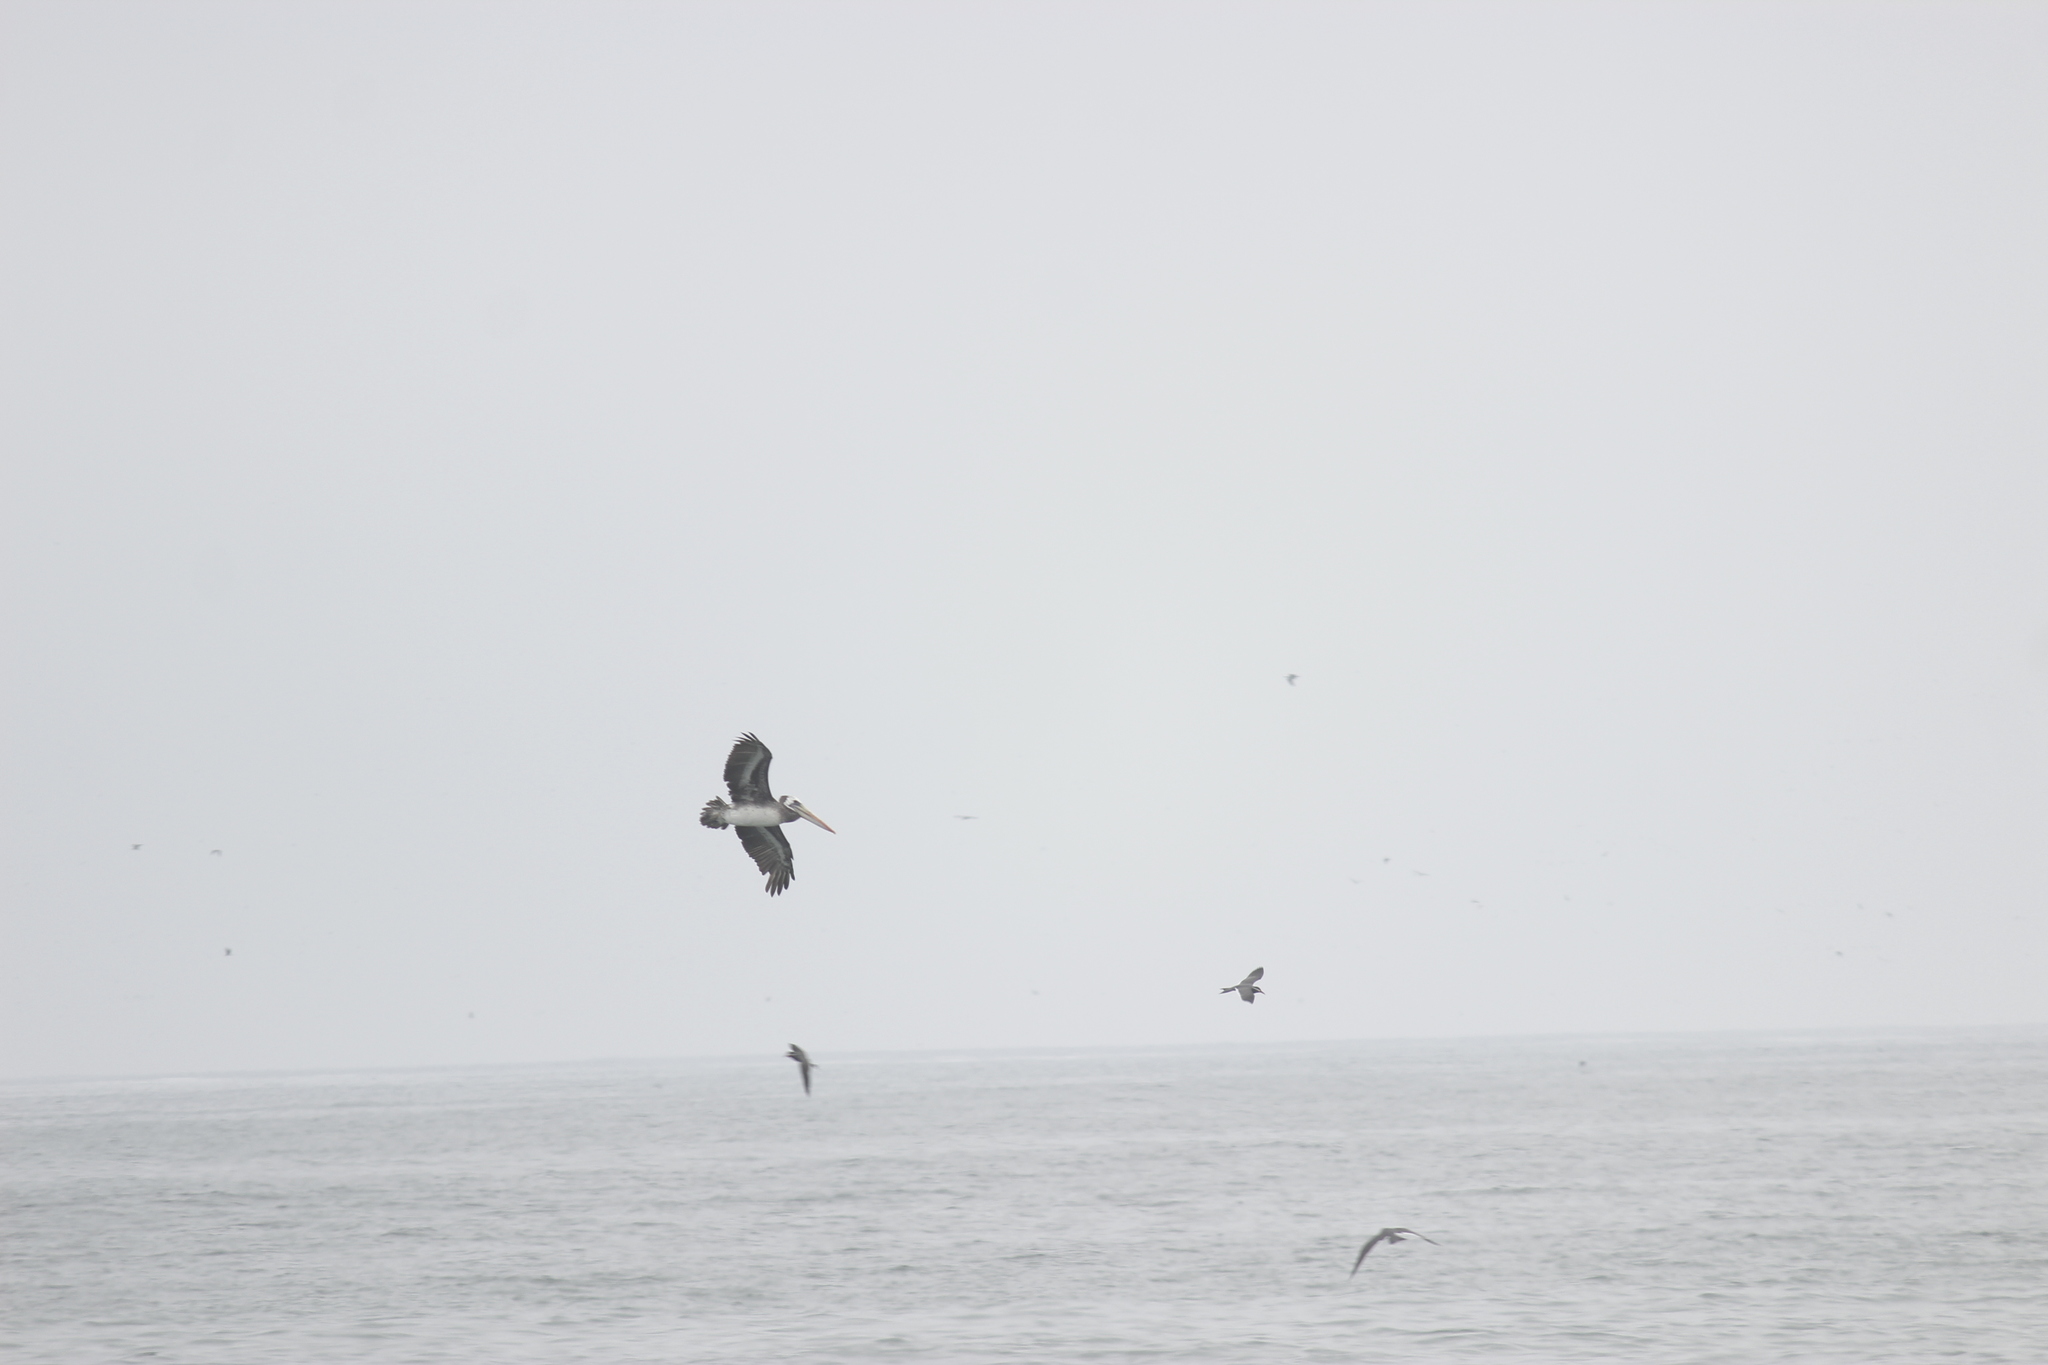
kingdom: Animalia
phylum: Chordata
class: Aves
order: Pelecaniformes
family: Pelecanidae
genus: Pelecanus
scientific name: Pelecanus thagus
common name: Peruvian pelican
